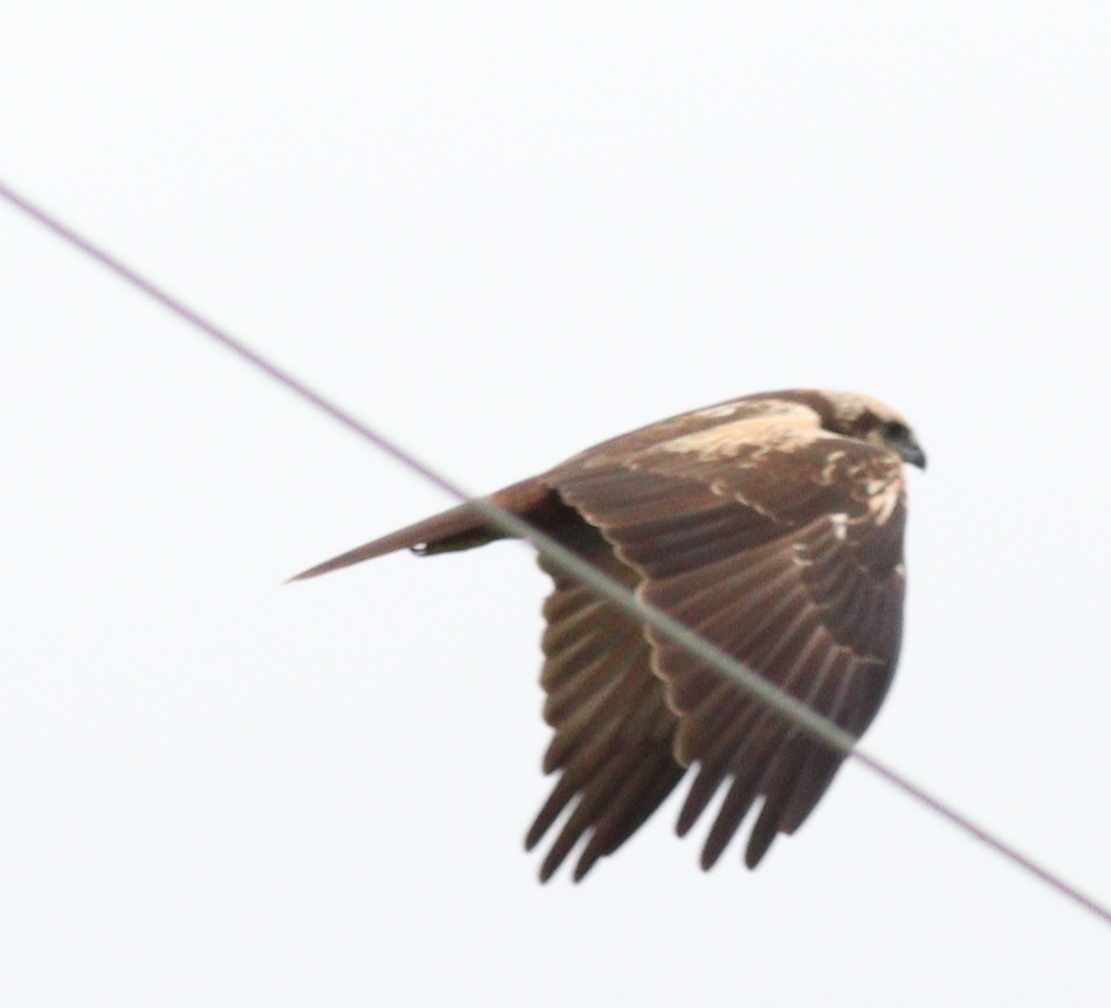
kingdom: Animalia
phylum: Chordata
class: Aves
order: Accipitriformes
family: Accipitridae
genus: Circus
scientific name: Circus aeruginosus
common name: Western marsh harrier
